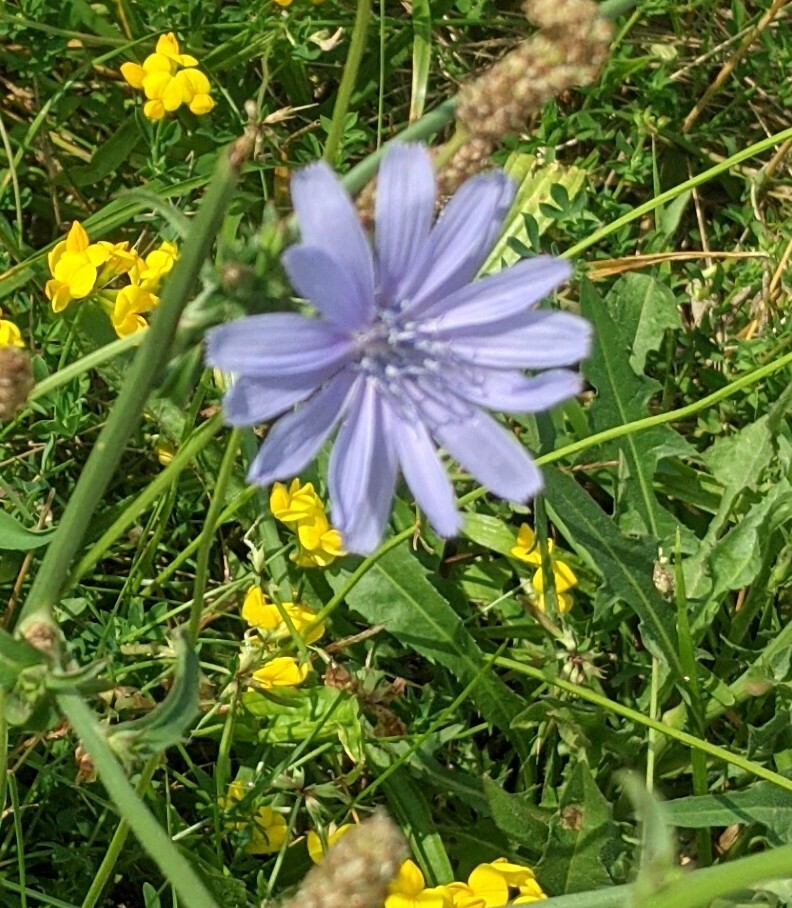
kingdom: Plantae
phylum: Tracheophyta
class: Magnoliopsida
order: Asterales
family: Asteraceae
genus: Cichorium
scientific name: Cichorium intybus
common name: Chicory
